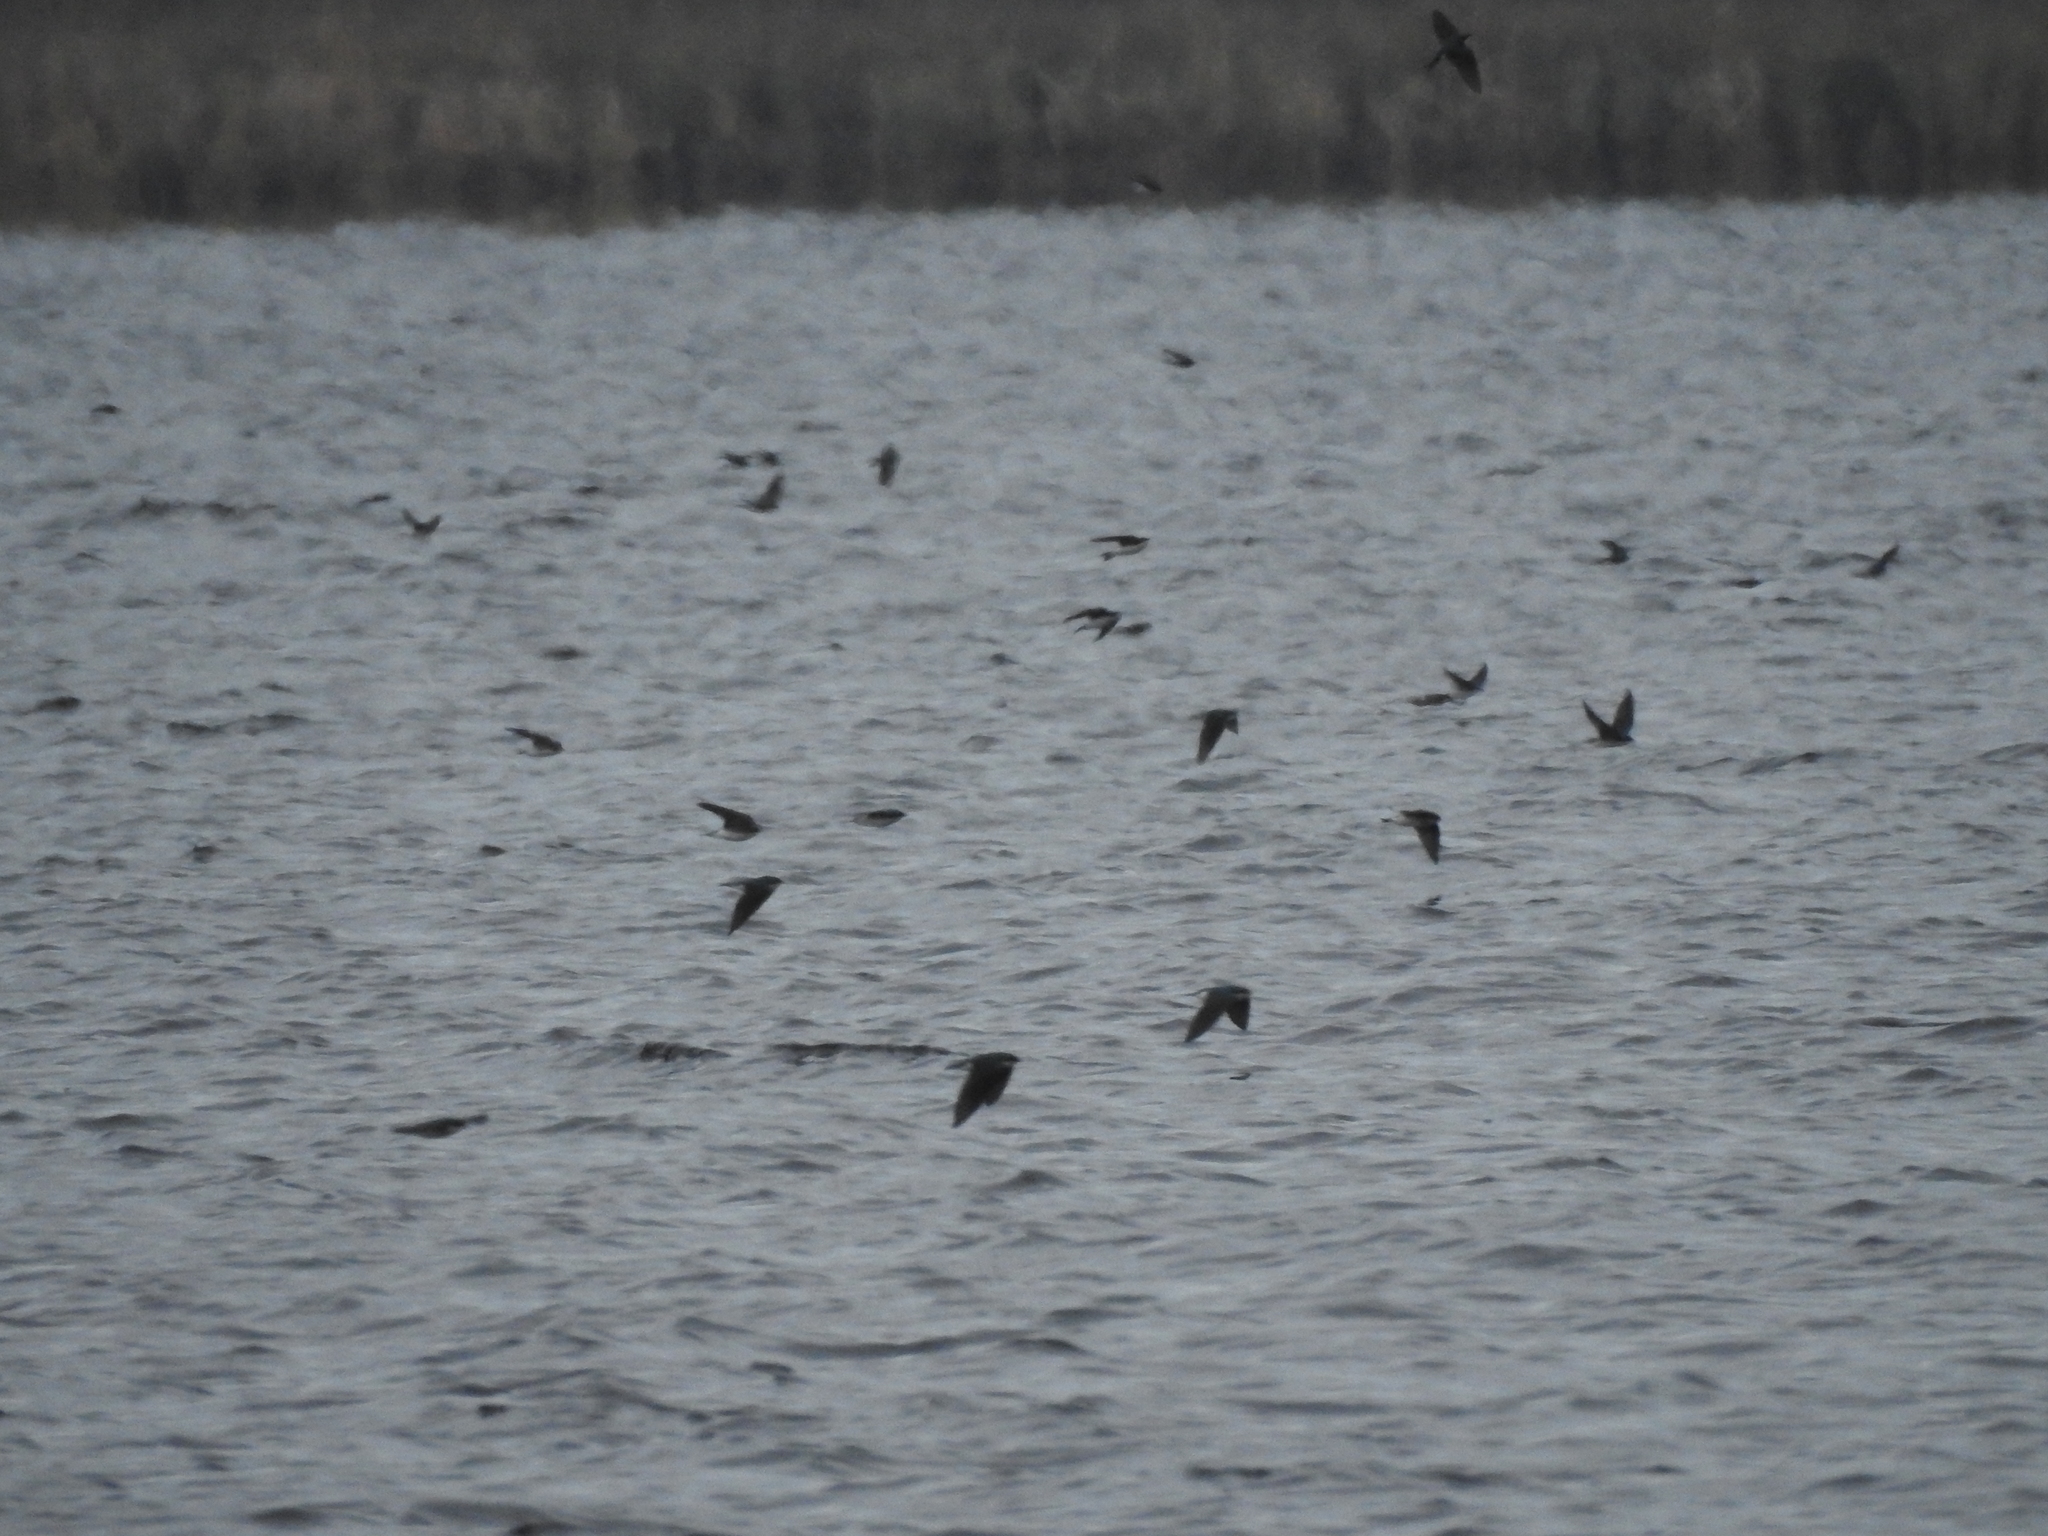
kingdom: Animalia
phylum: Chordata
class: Aves
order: Passeriformes
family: Hirundinidae
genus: Tachycineta
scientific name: Tachycineta bicolor
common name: Tree swallow
